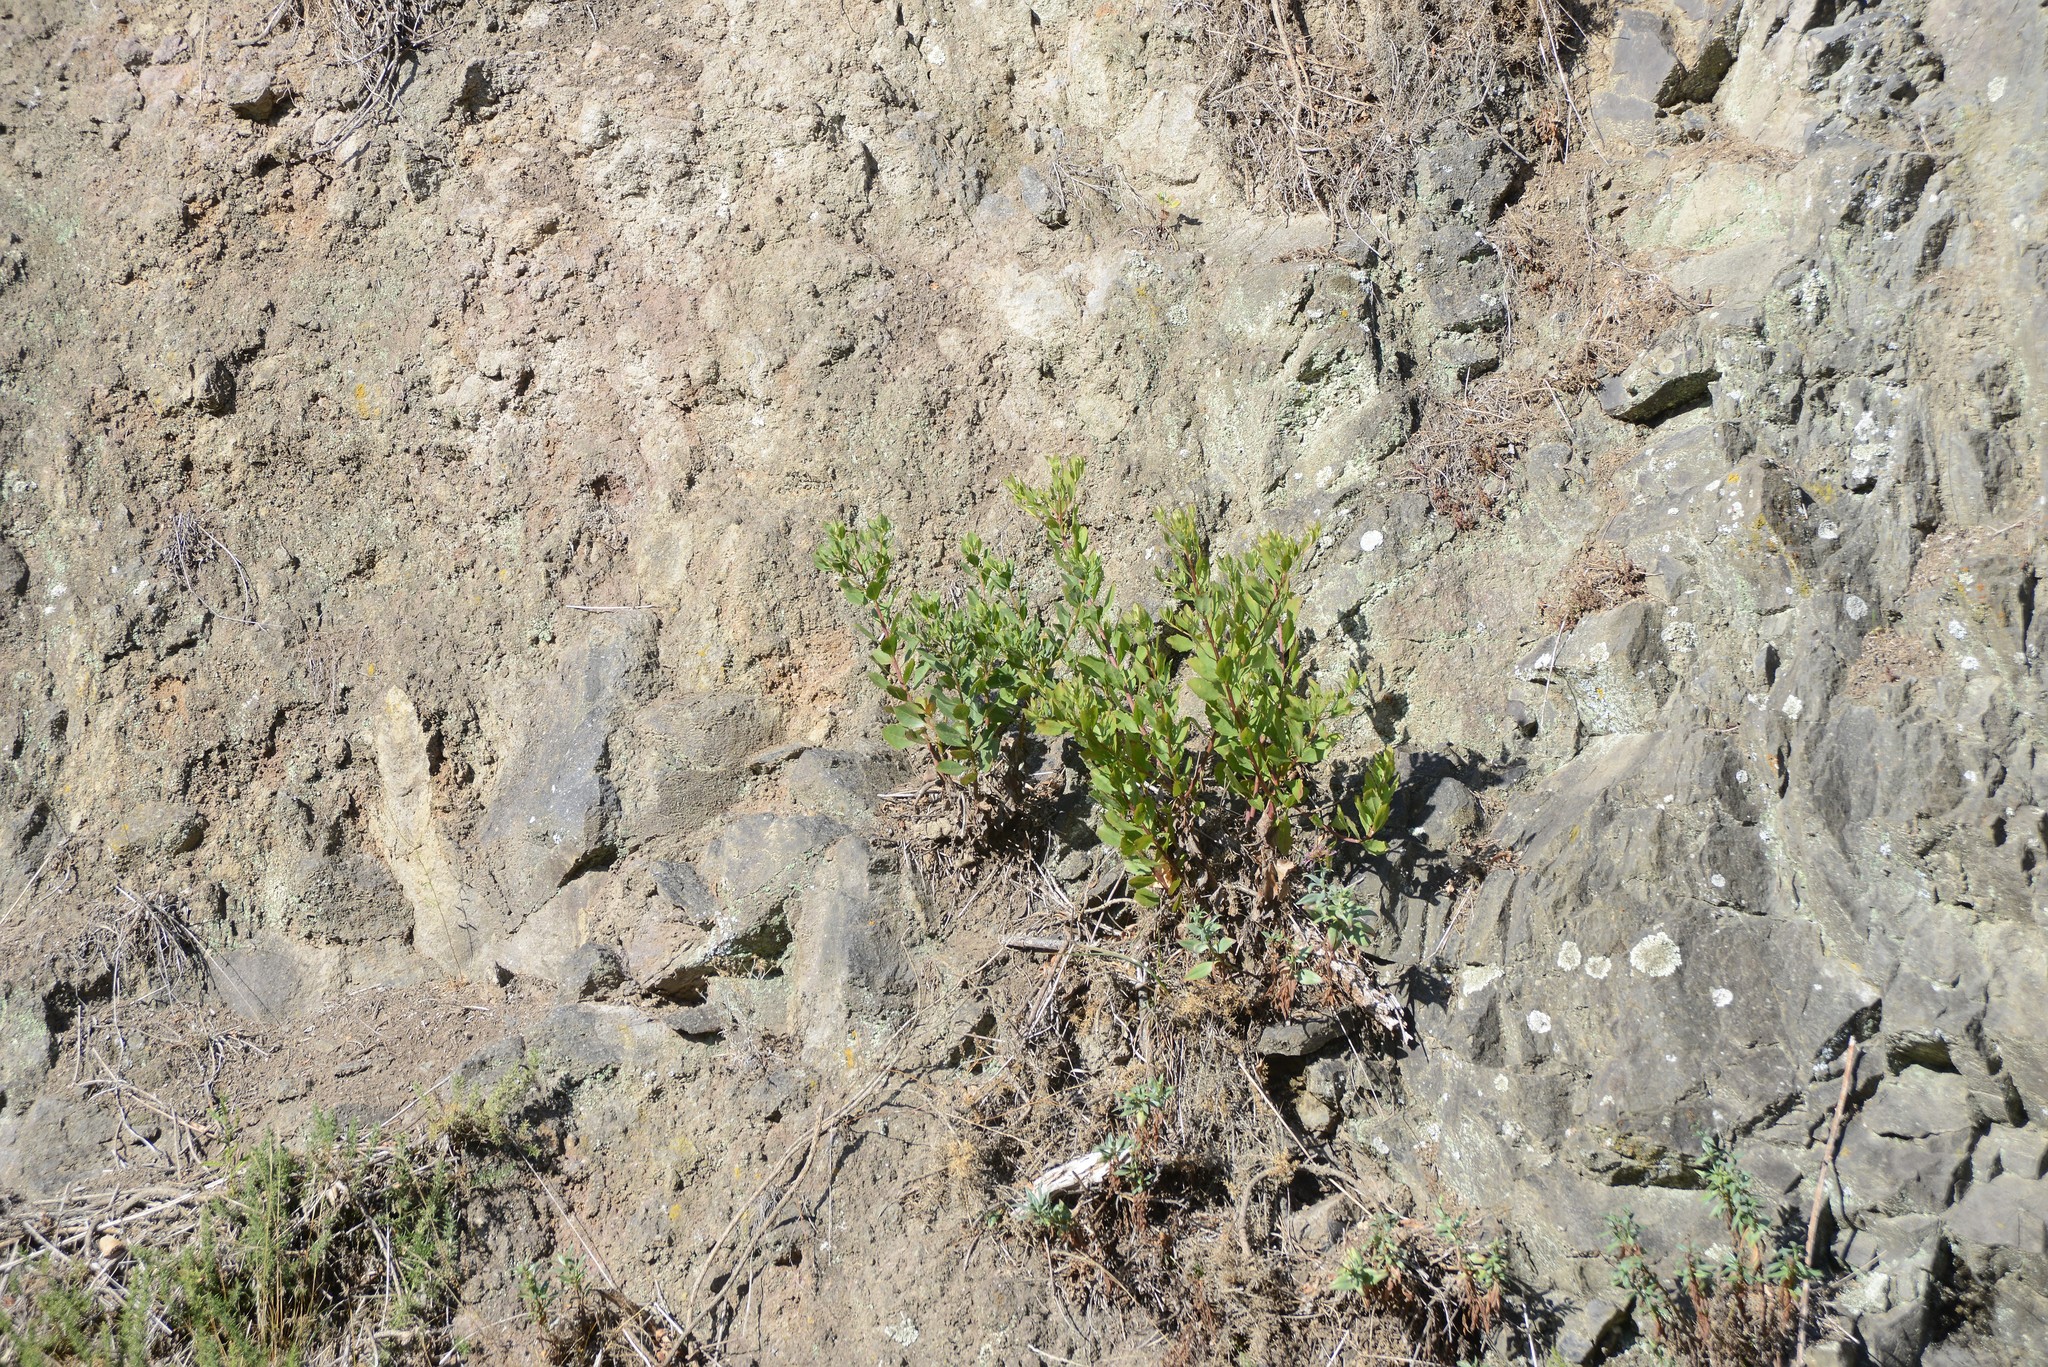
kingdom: Plantae
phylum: Tracheophyta
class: Magnoliopsida
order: Asterales
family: Asteraceae
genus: Osteospermum
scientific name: Osteospermum moniliferum
